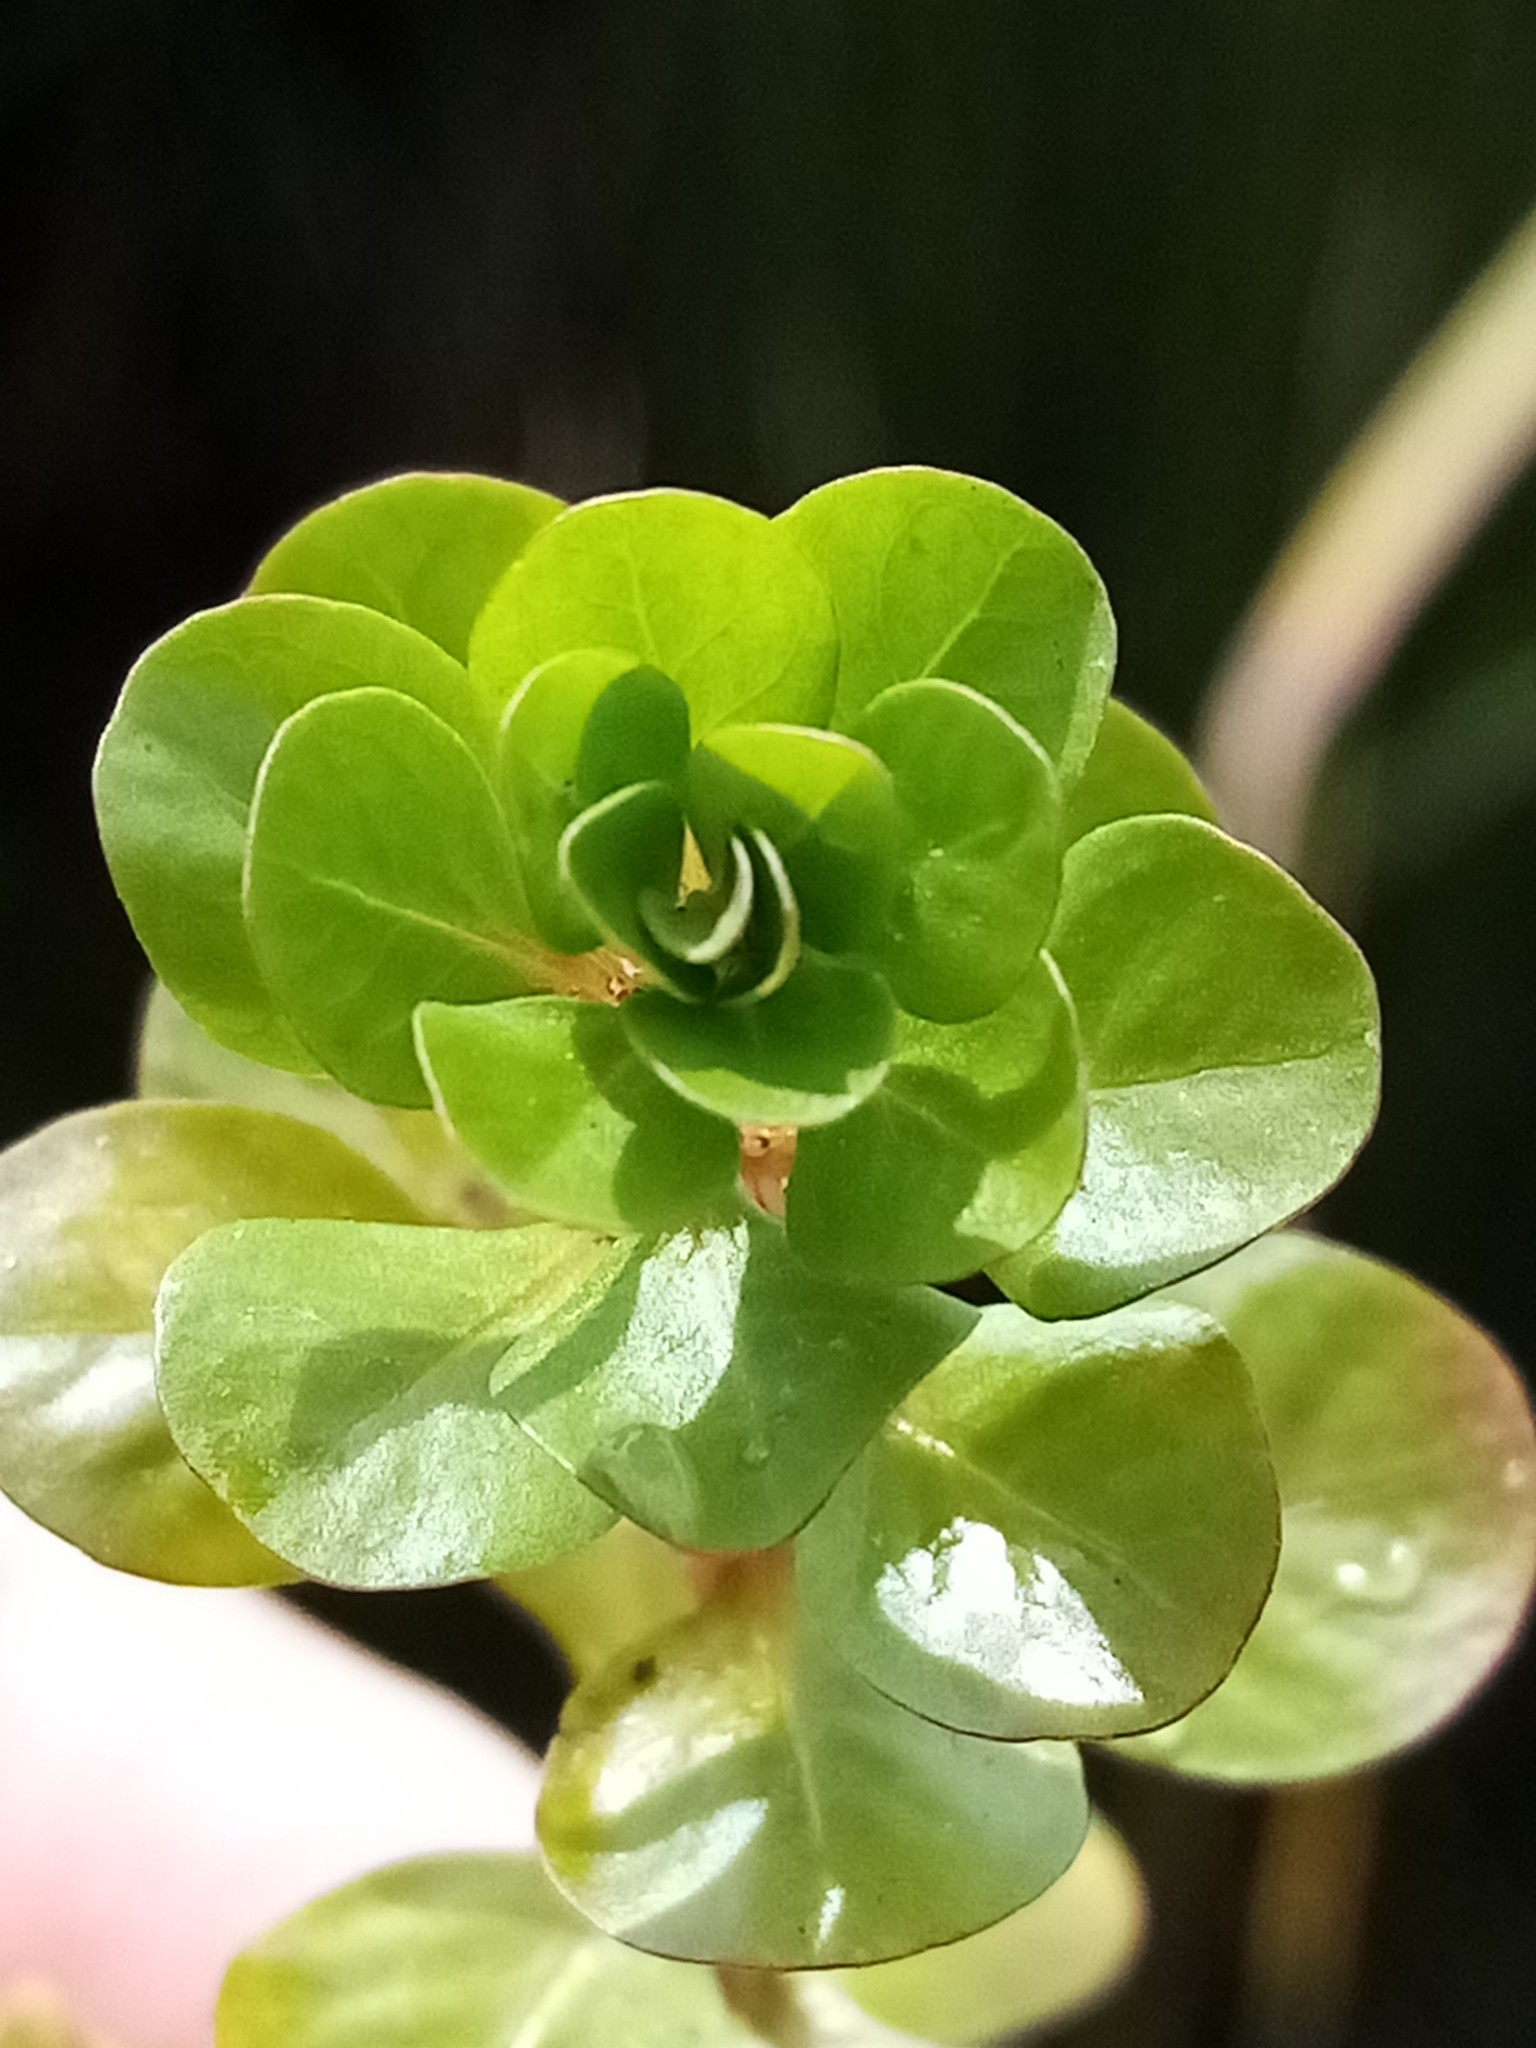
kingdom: Plantae
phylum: Tracheophyta
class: Magnoliopsida
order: Myrtales
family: Lythraceae
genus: Lythrum
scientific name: Lythrum portula
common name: Water purslane
